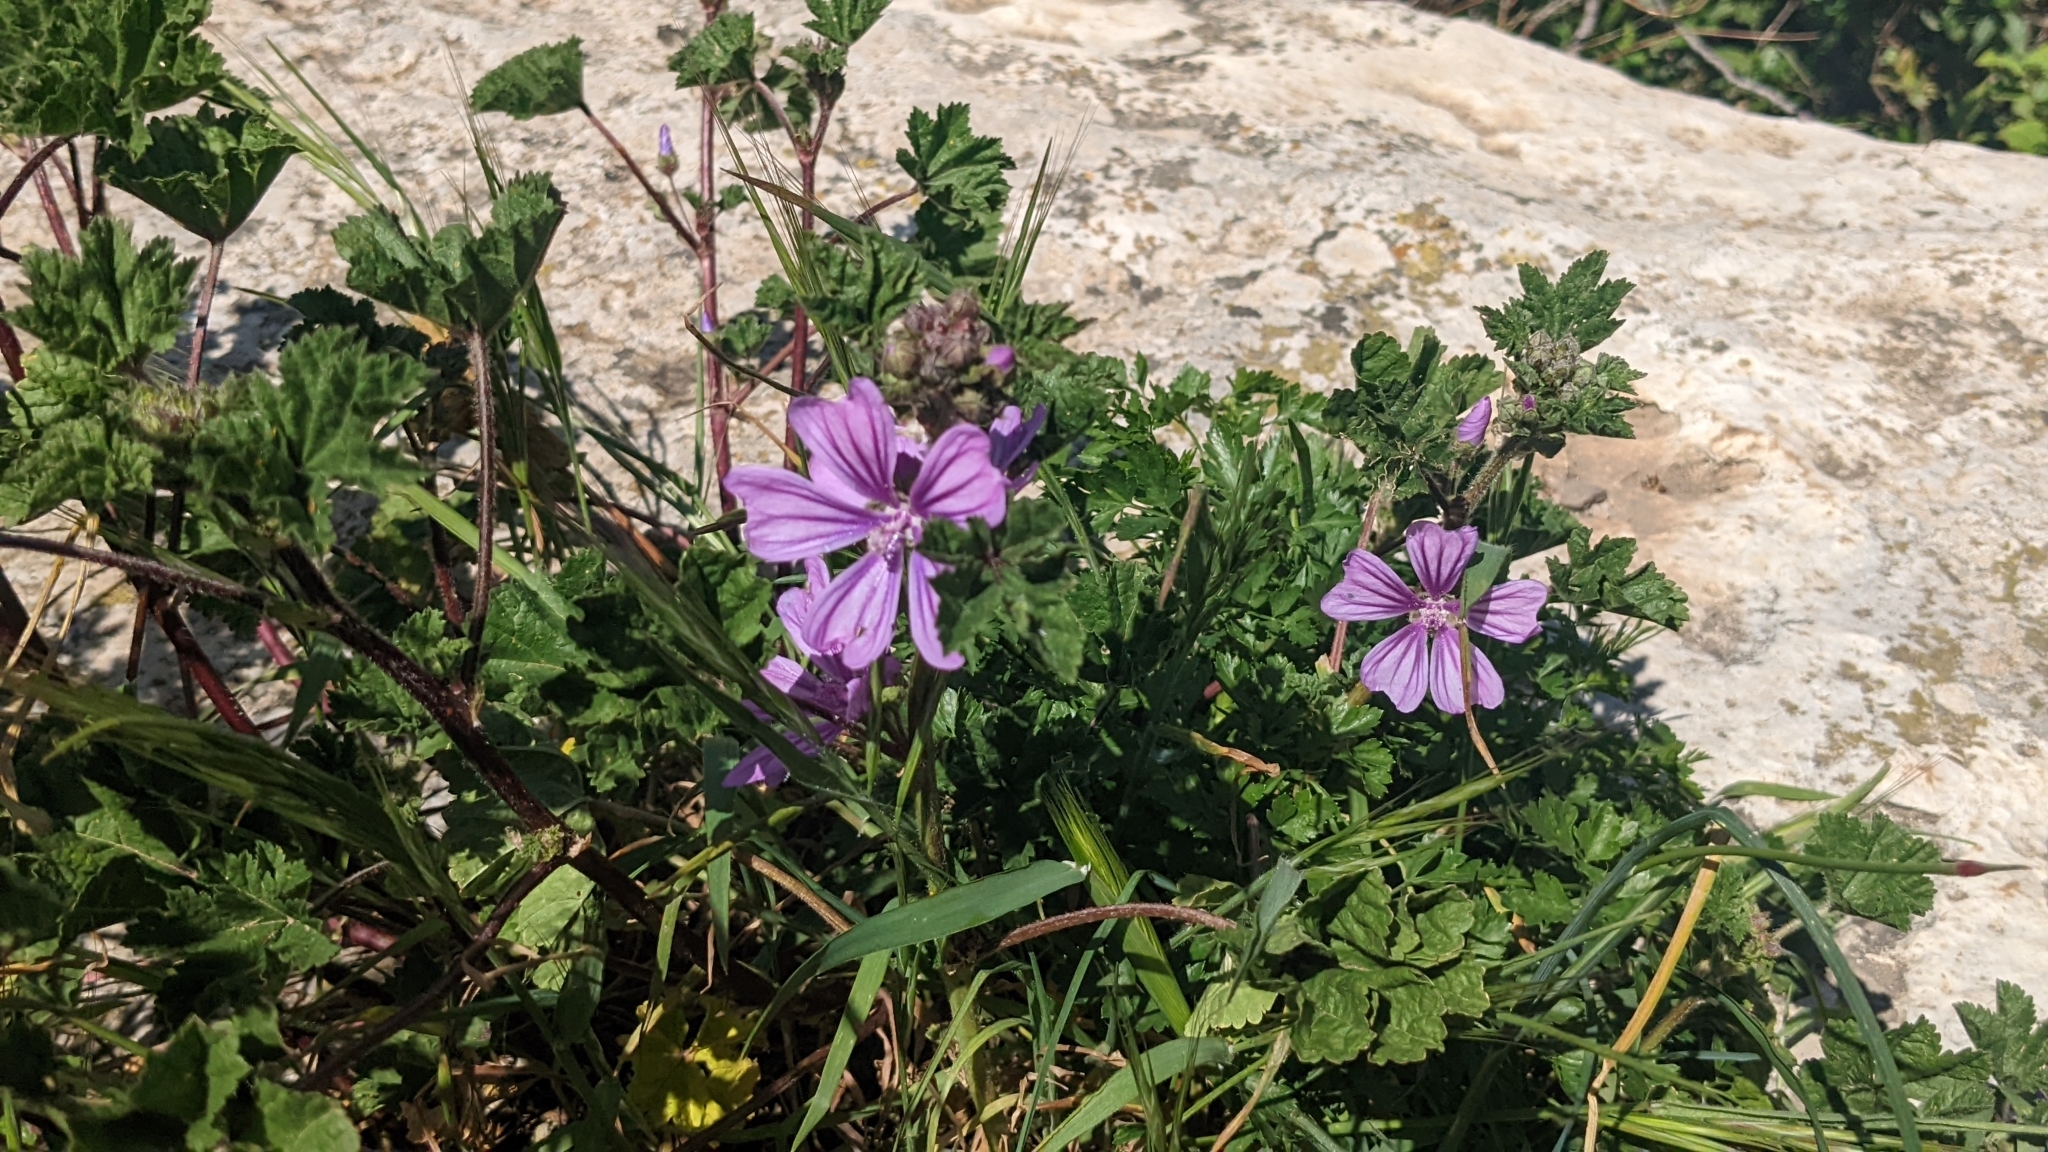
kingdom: Plantae
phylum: Tracheophyta
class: Magnoliopsida
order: Malvales
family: Malvaceae
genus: Malva
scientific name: Malva sylvestris
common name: Common mallow
